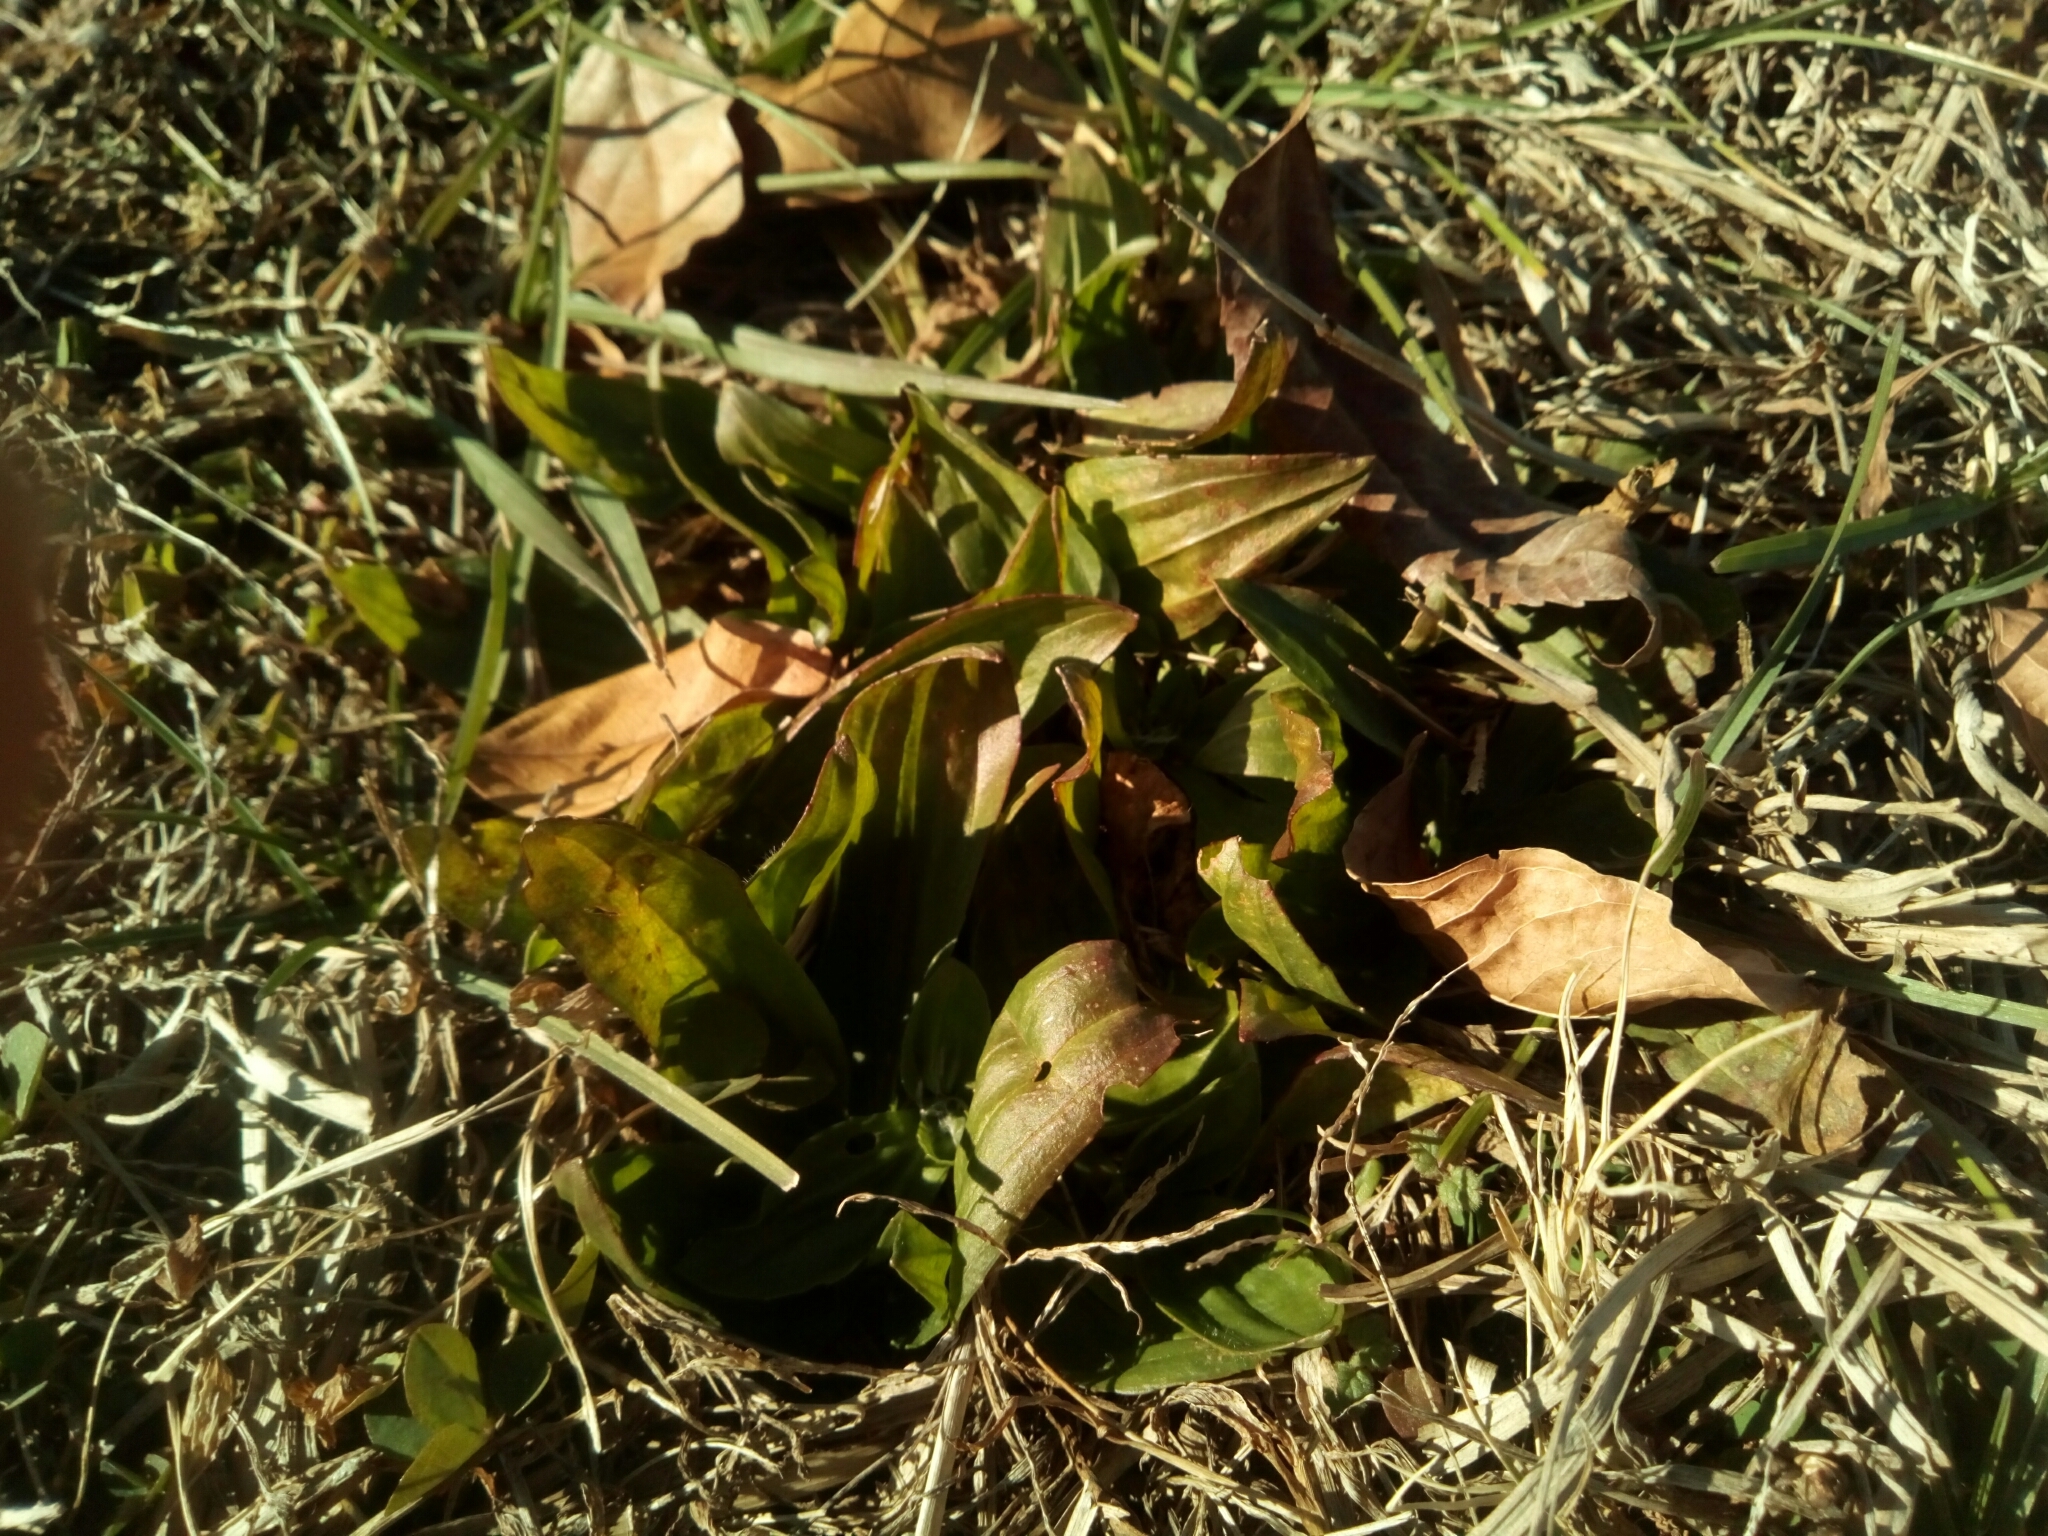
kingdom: Plantae
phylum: Tracheophyta
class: Magnoliopsida
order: Lamiales
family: Plantaginaceae
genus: Plantago
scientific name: Plantago lanceolata
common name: Ribwort plantain
